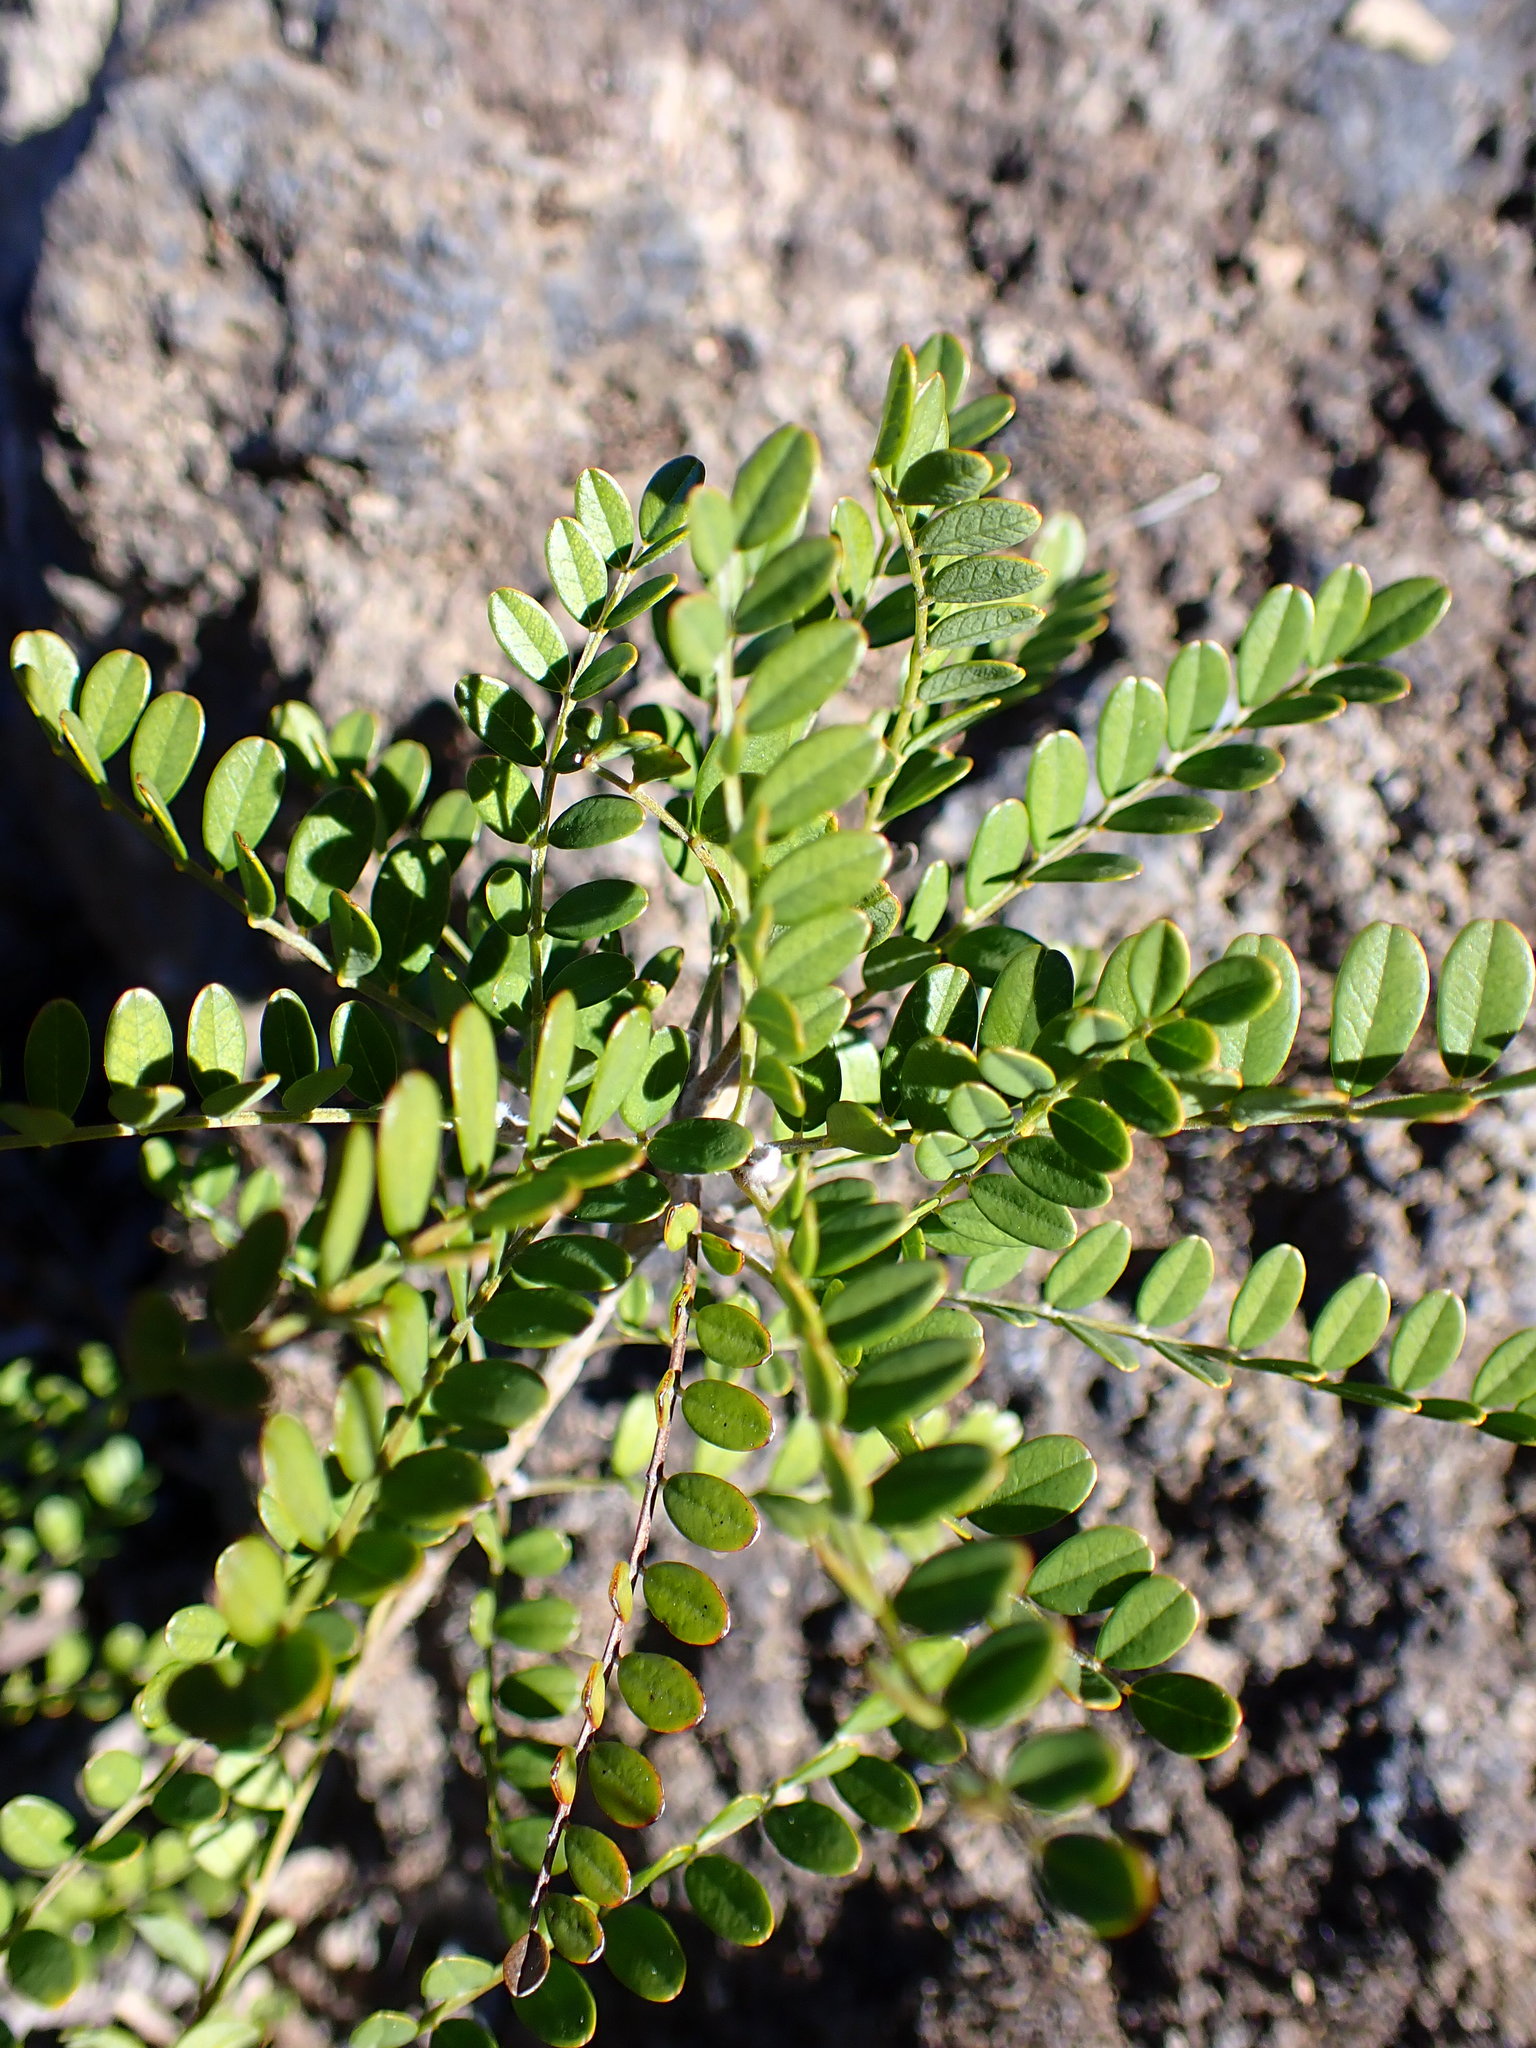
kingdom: Plantae
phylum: Tracheophyta
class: Magnoliopsida
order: Fabales
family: Fabaceae
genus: Sophora
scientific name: Sophora chrysophylla
